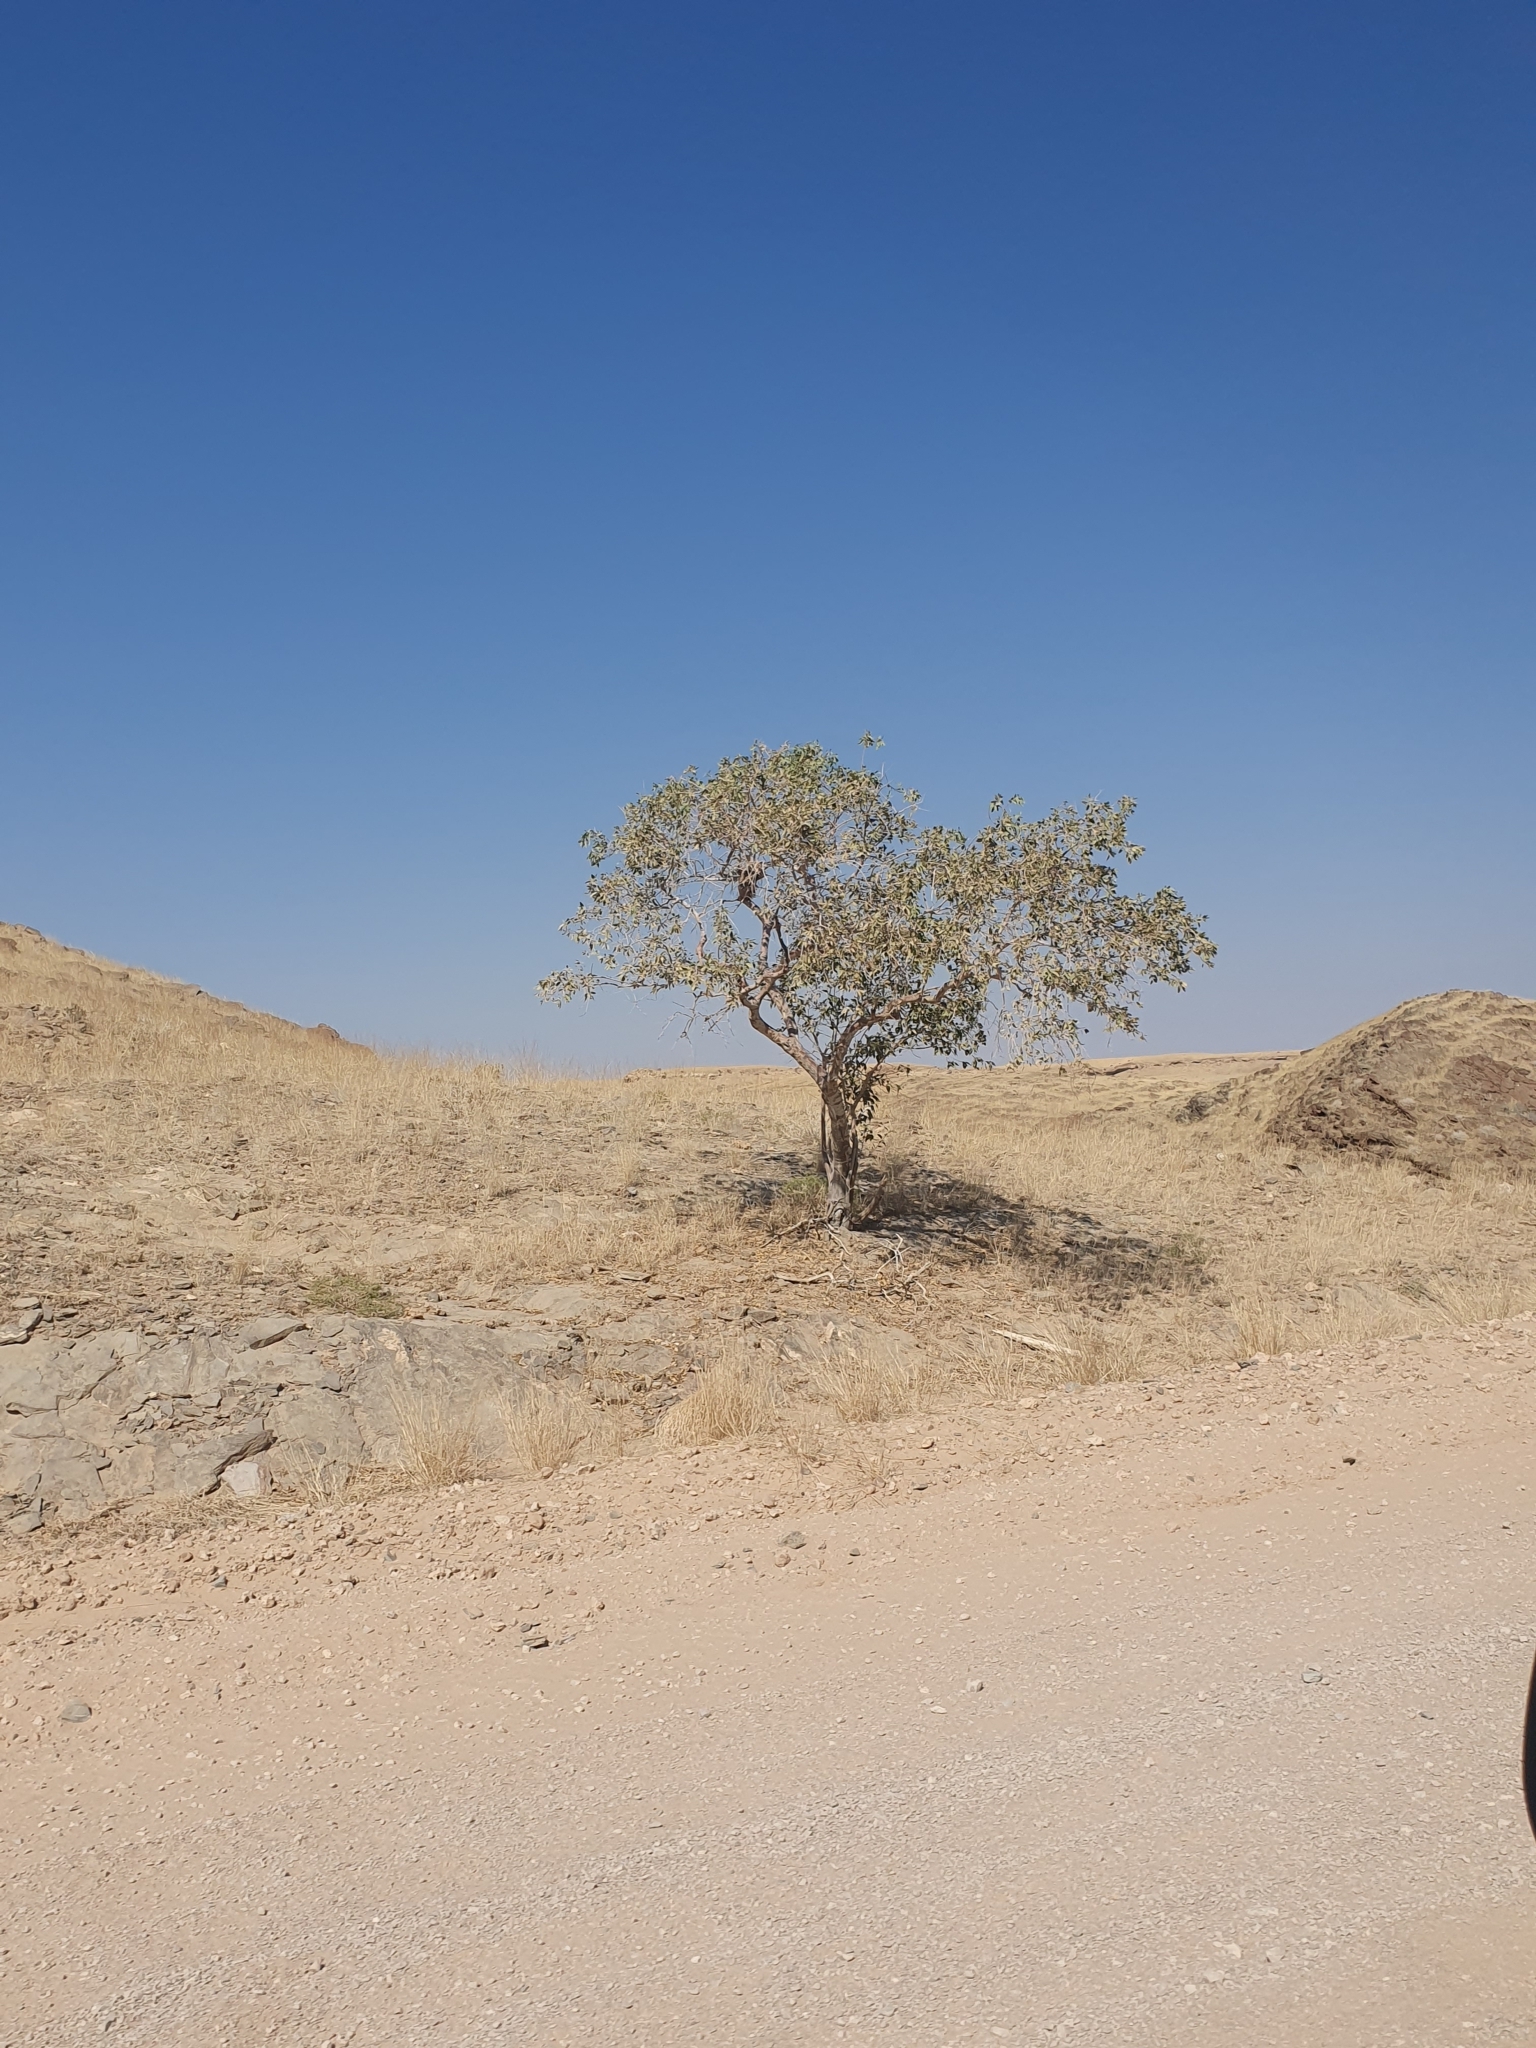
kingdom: Plantae
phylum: Tracheophyta
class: Magnoliopsida
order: Brassicales
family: Capparaceae
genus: Maerua
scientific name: Maerua schinzii
